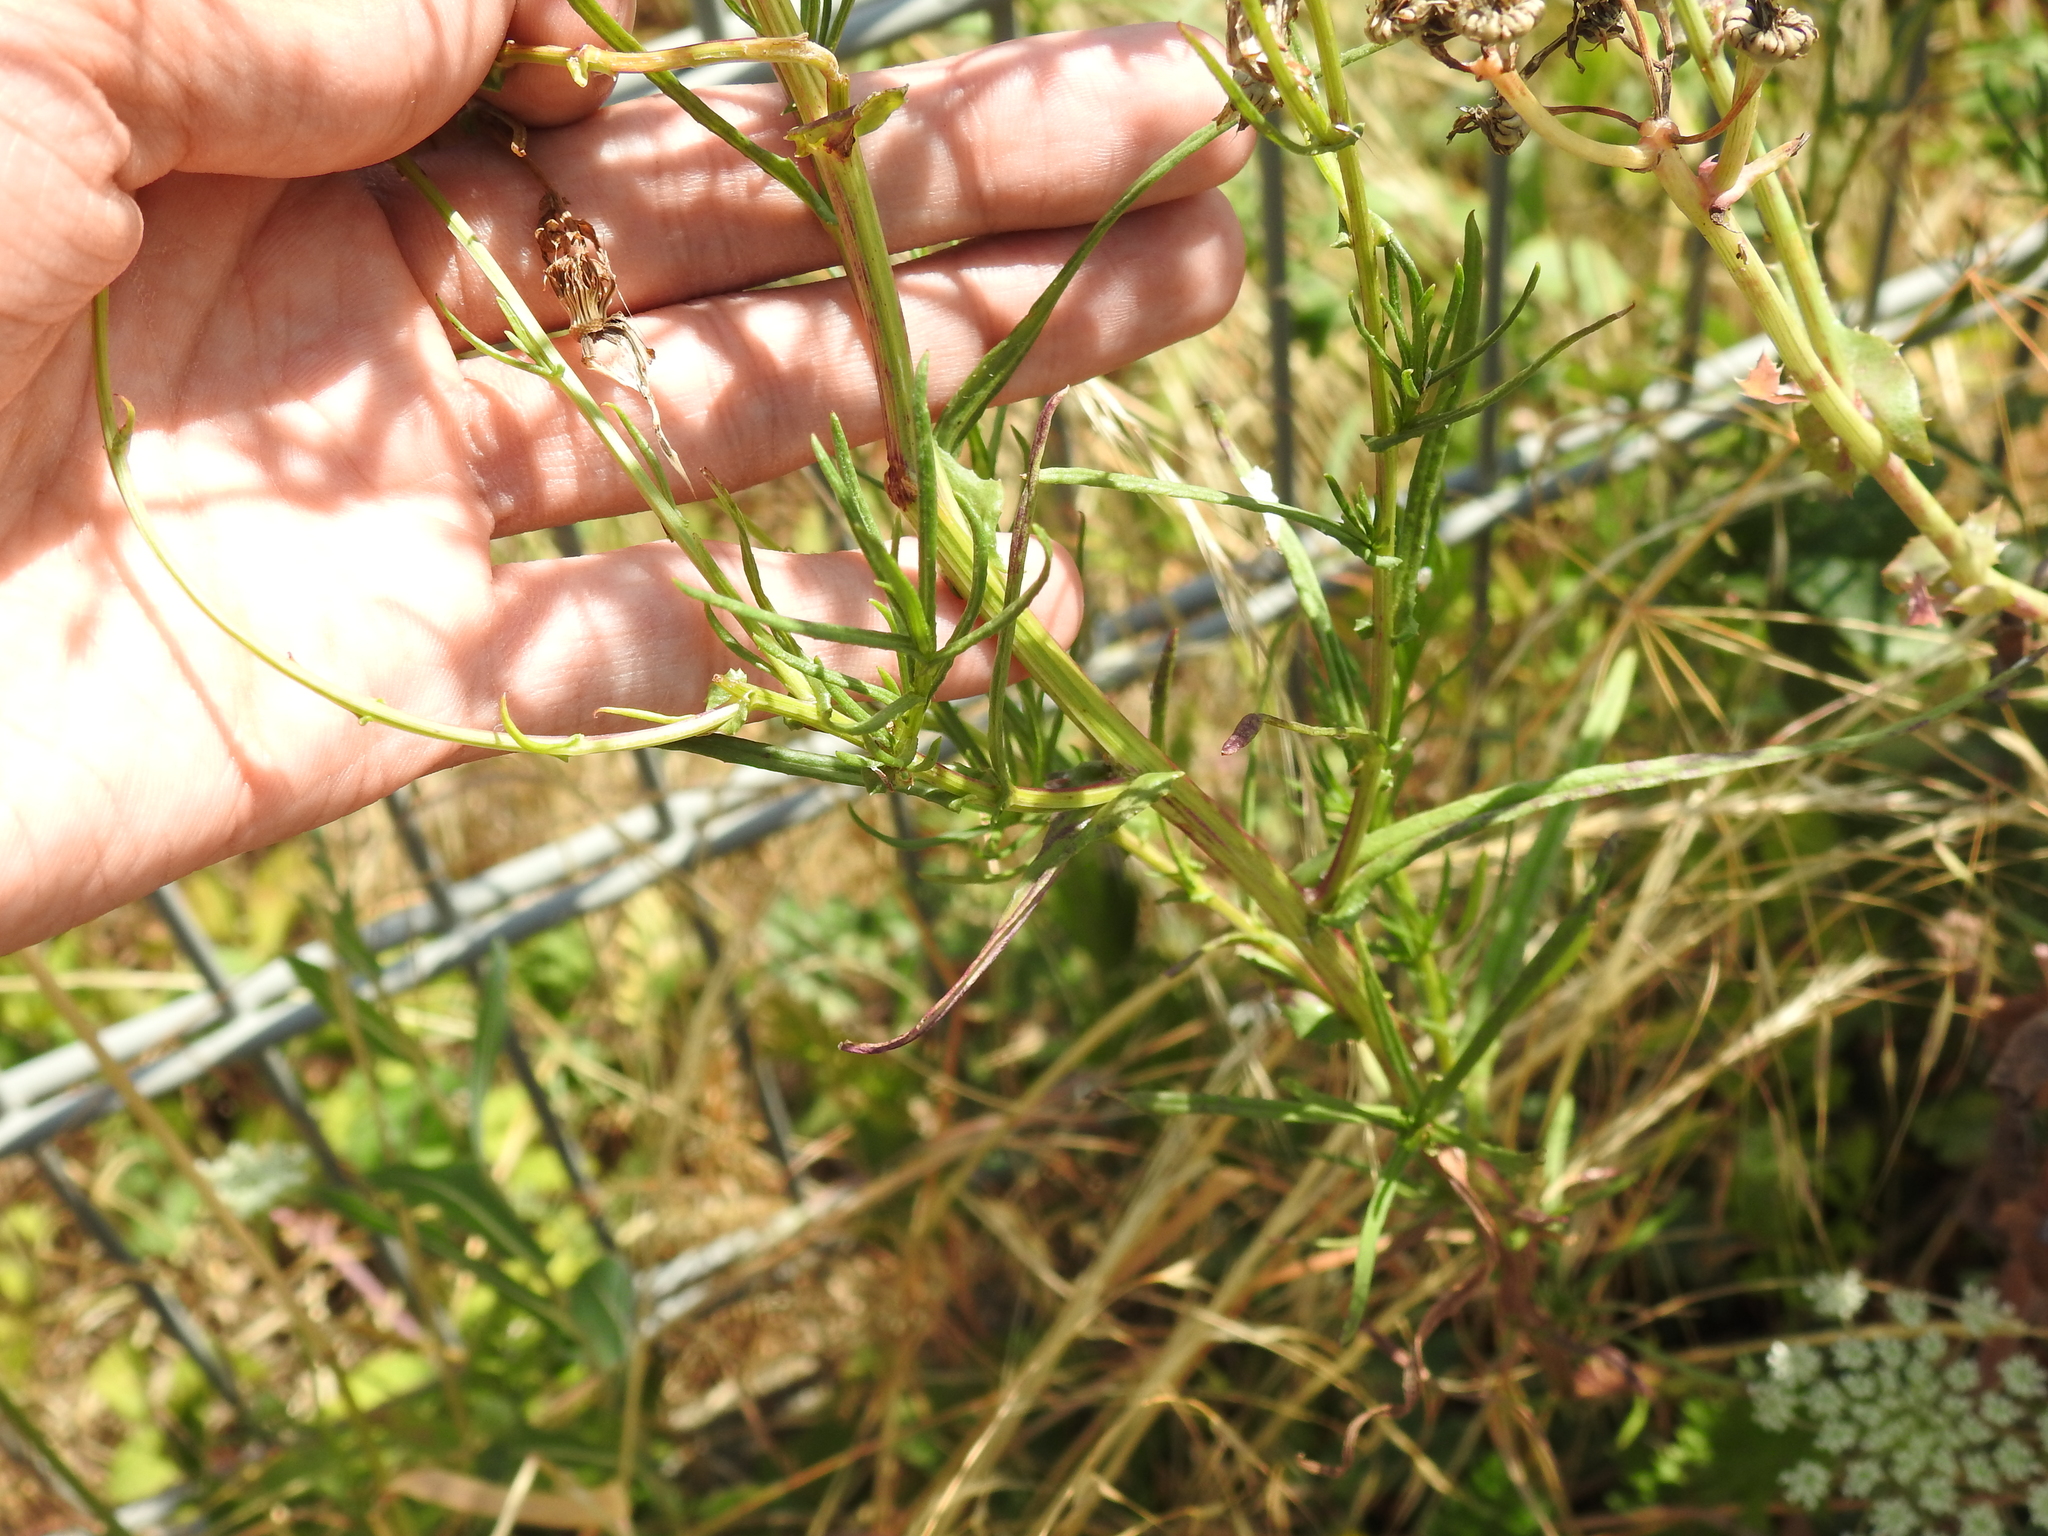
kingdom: Plantae
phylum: Tracheophyta
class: Magnoliopsida
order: Asterales
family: Asteraceae
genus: Senecio
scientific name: Senecio inaequidens
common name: Narrow-leaved ragwort
